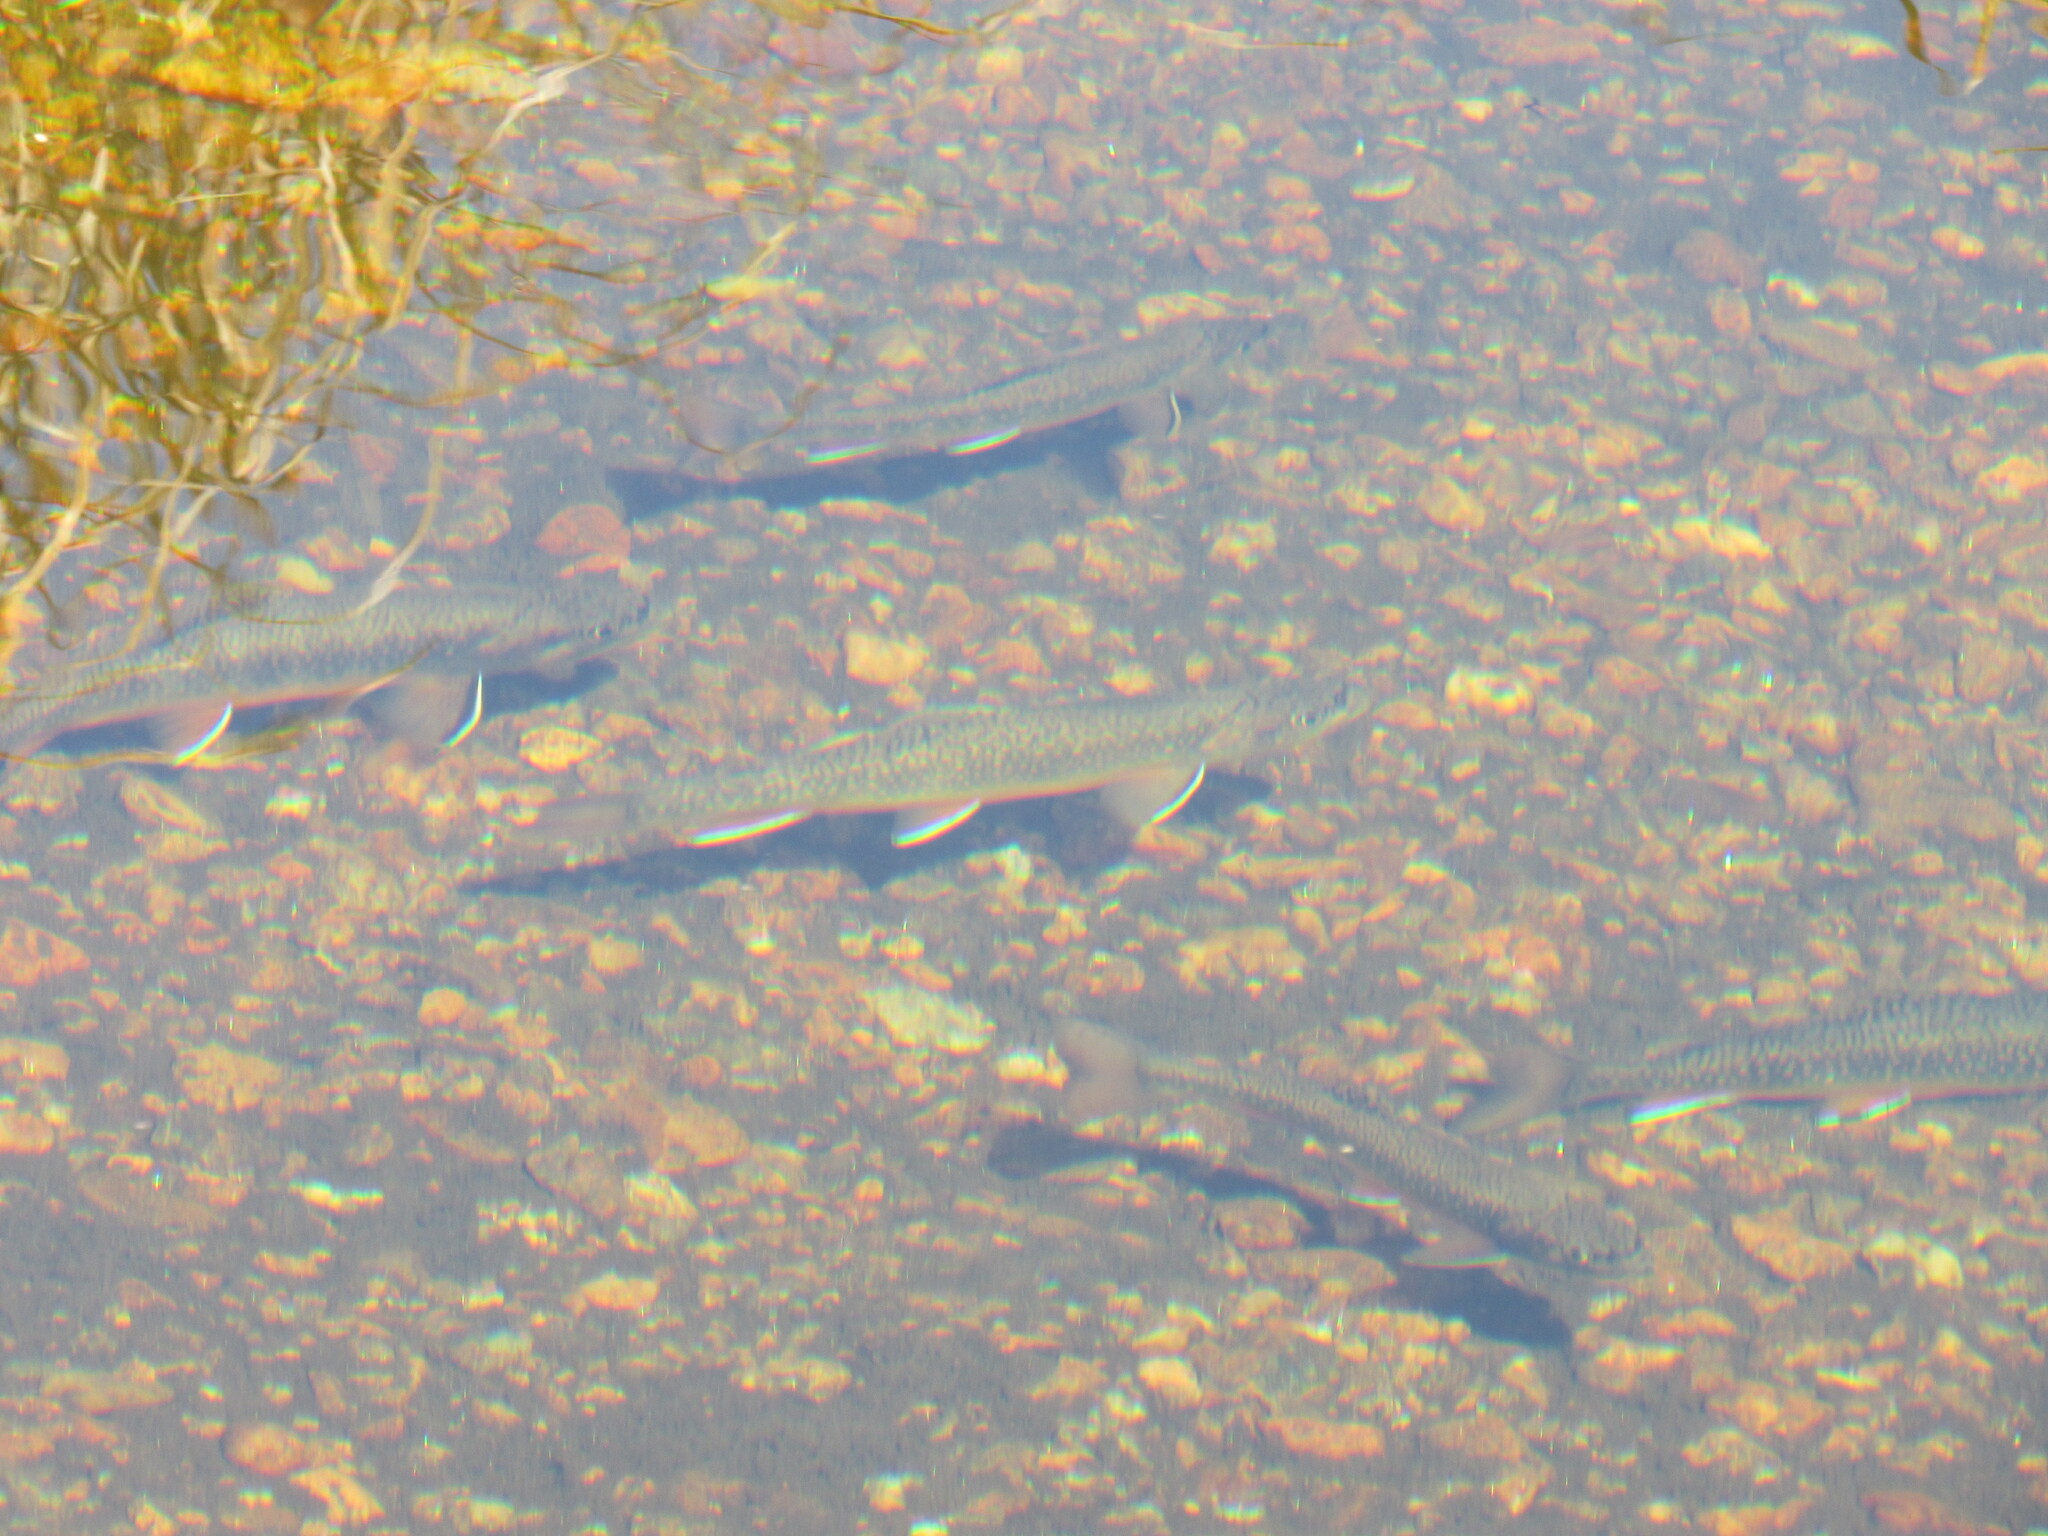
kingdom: Animalia
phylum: Chordata
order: Salmoniformes
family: Salmonidae
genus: Salvelinus
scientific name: Salvelinus fontinalis
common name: Brook trout
